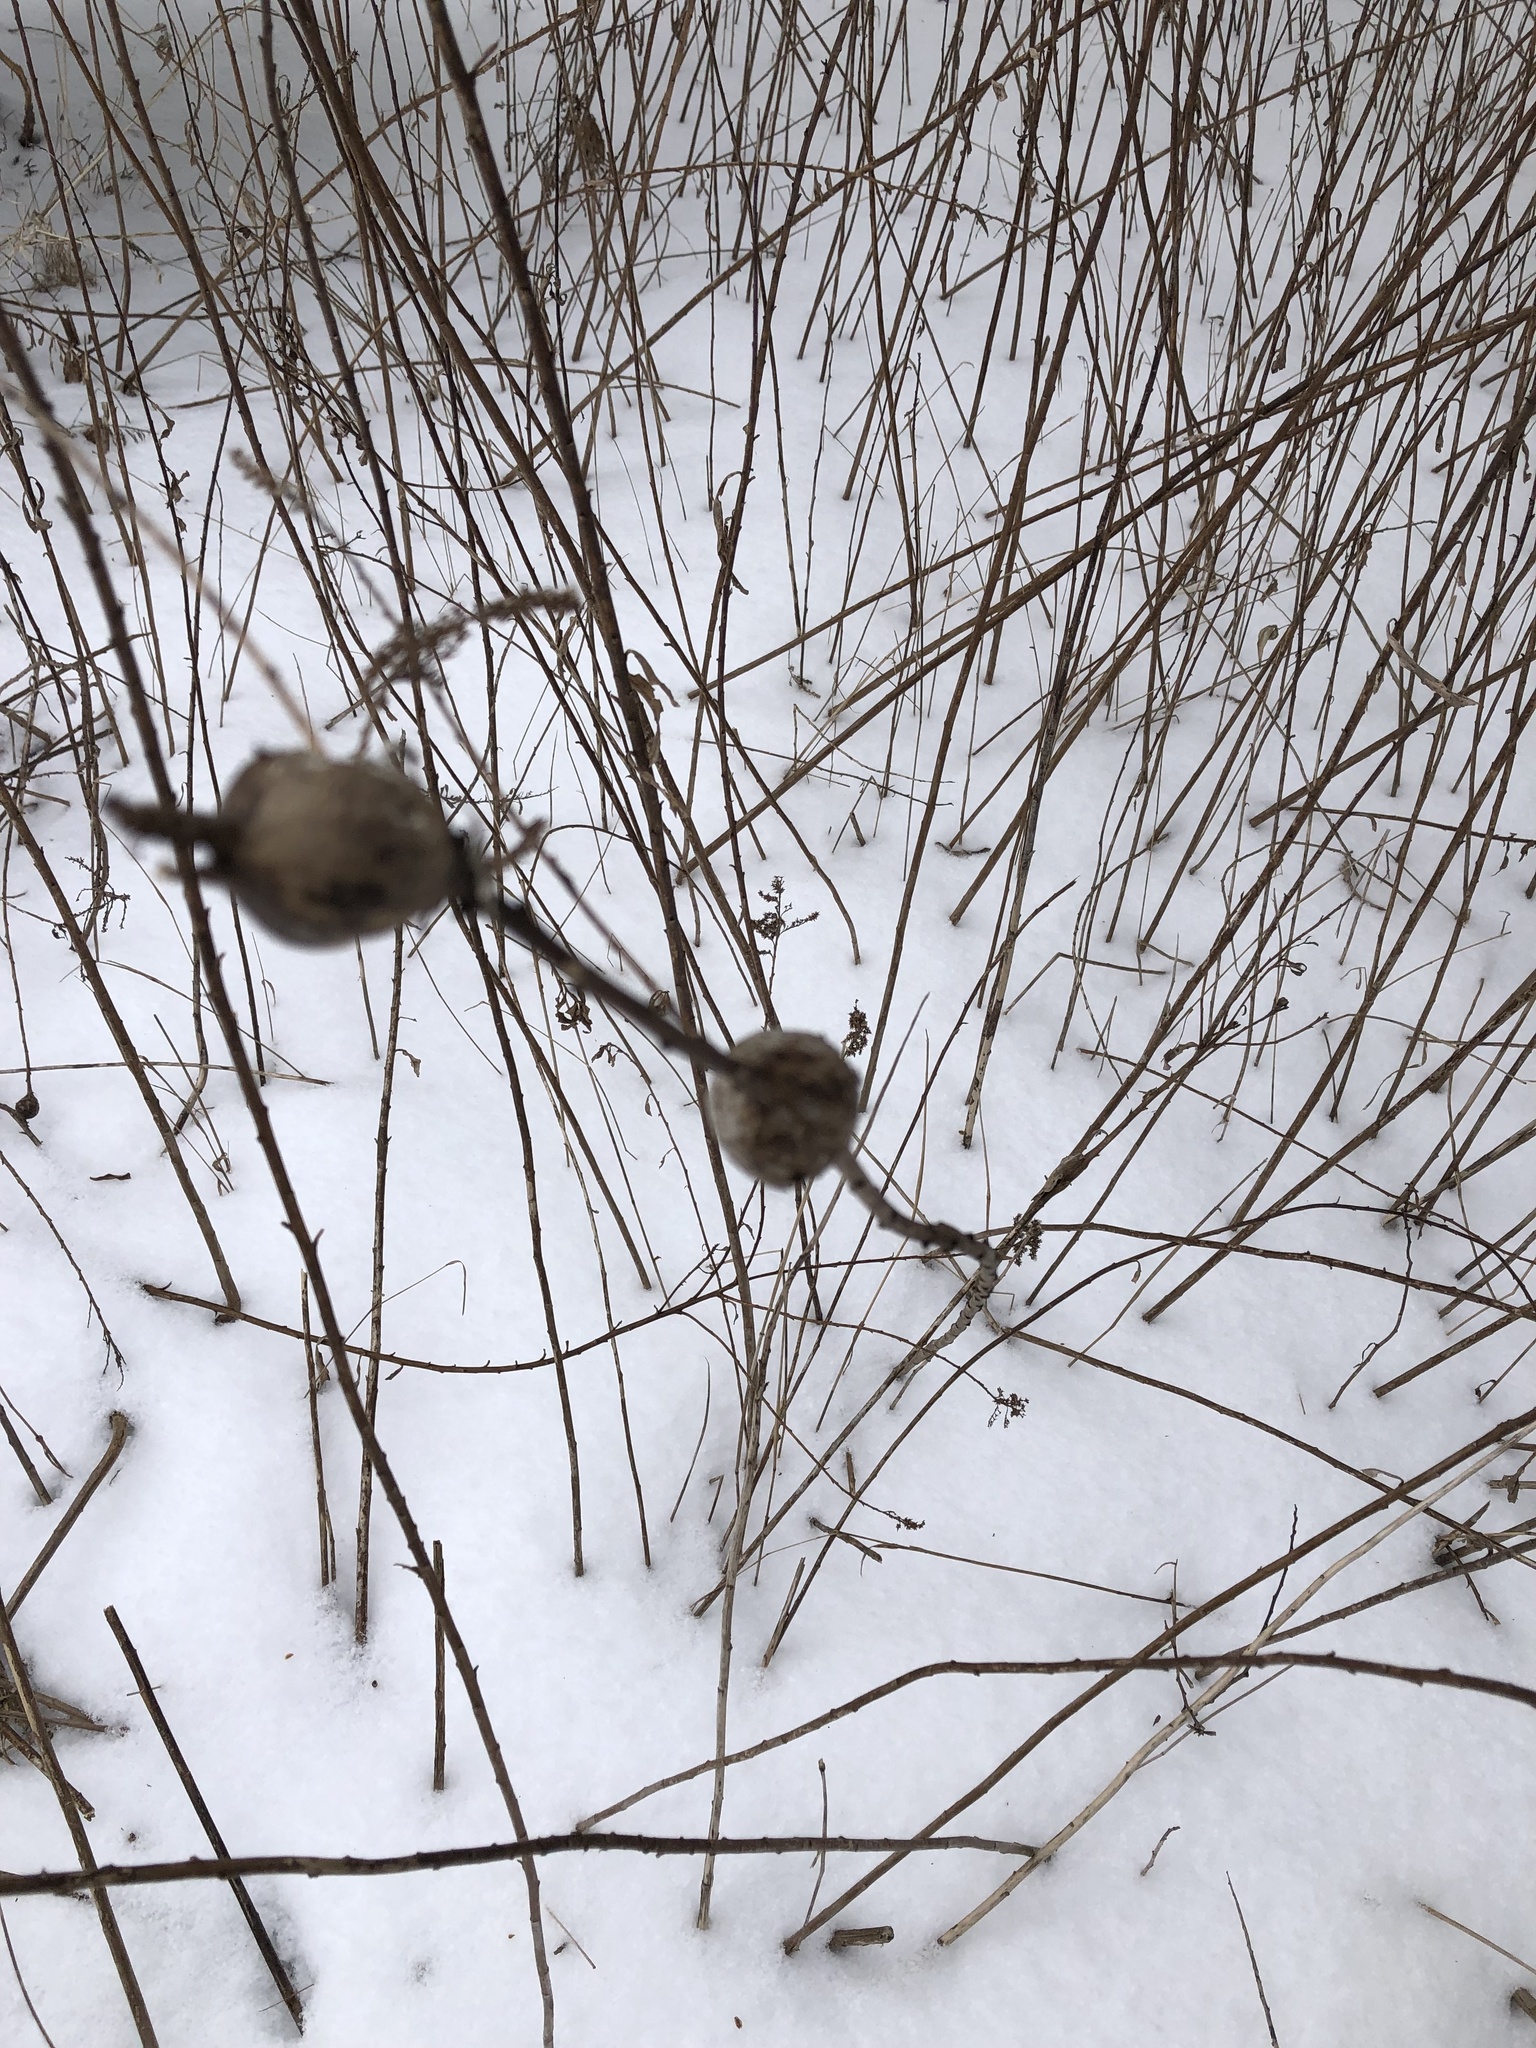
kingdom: Animalia
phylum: Arthropoda
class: Insecta
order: Diptera
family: Tephritidae
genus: Eurosta
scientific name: Eurosta solidaginis
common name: Goldenrod gall fly
